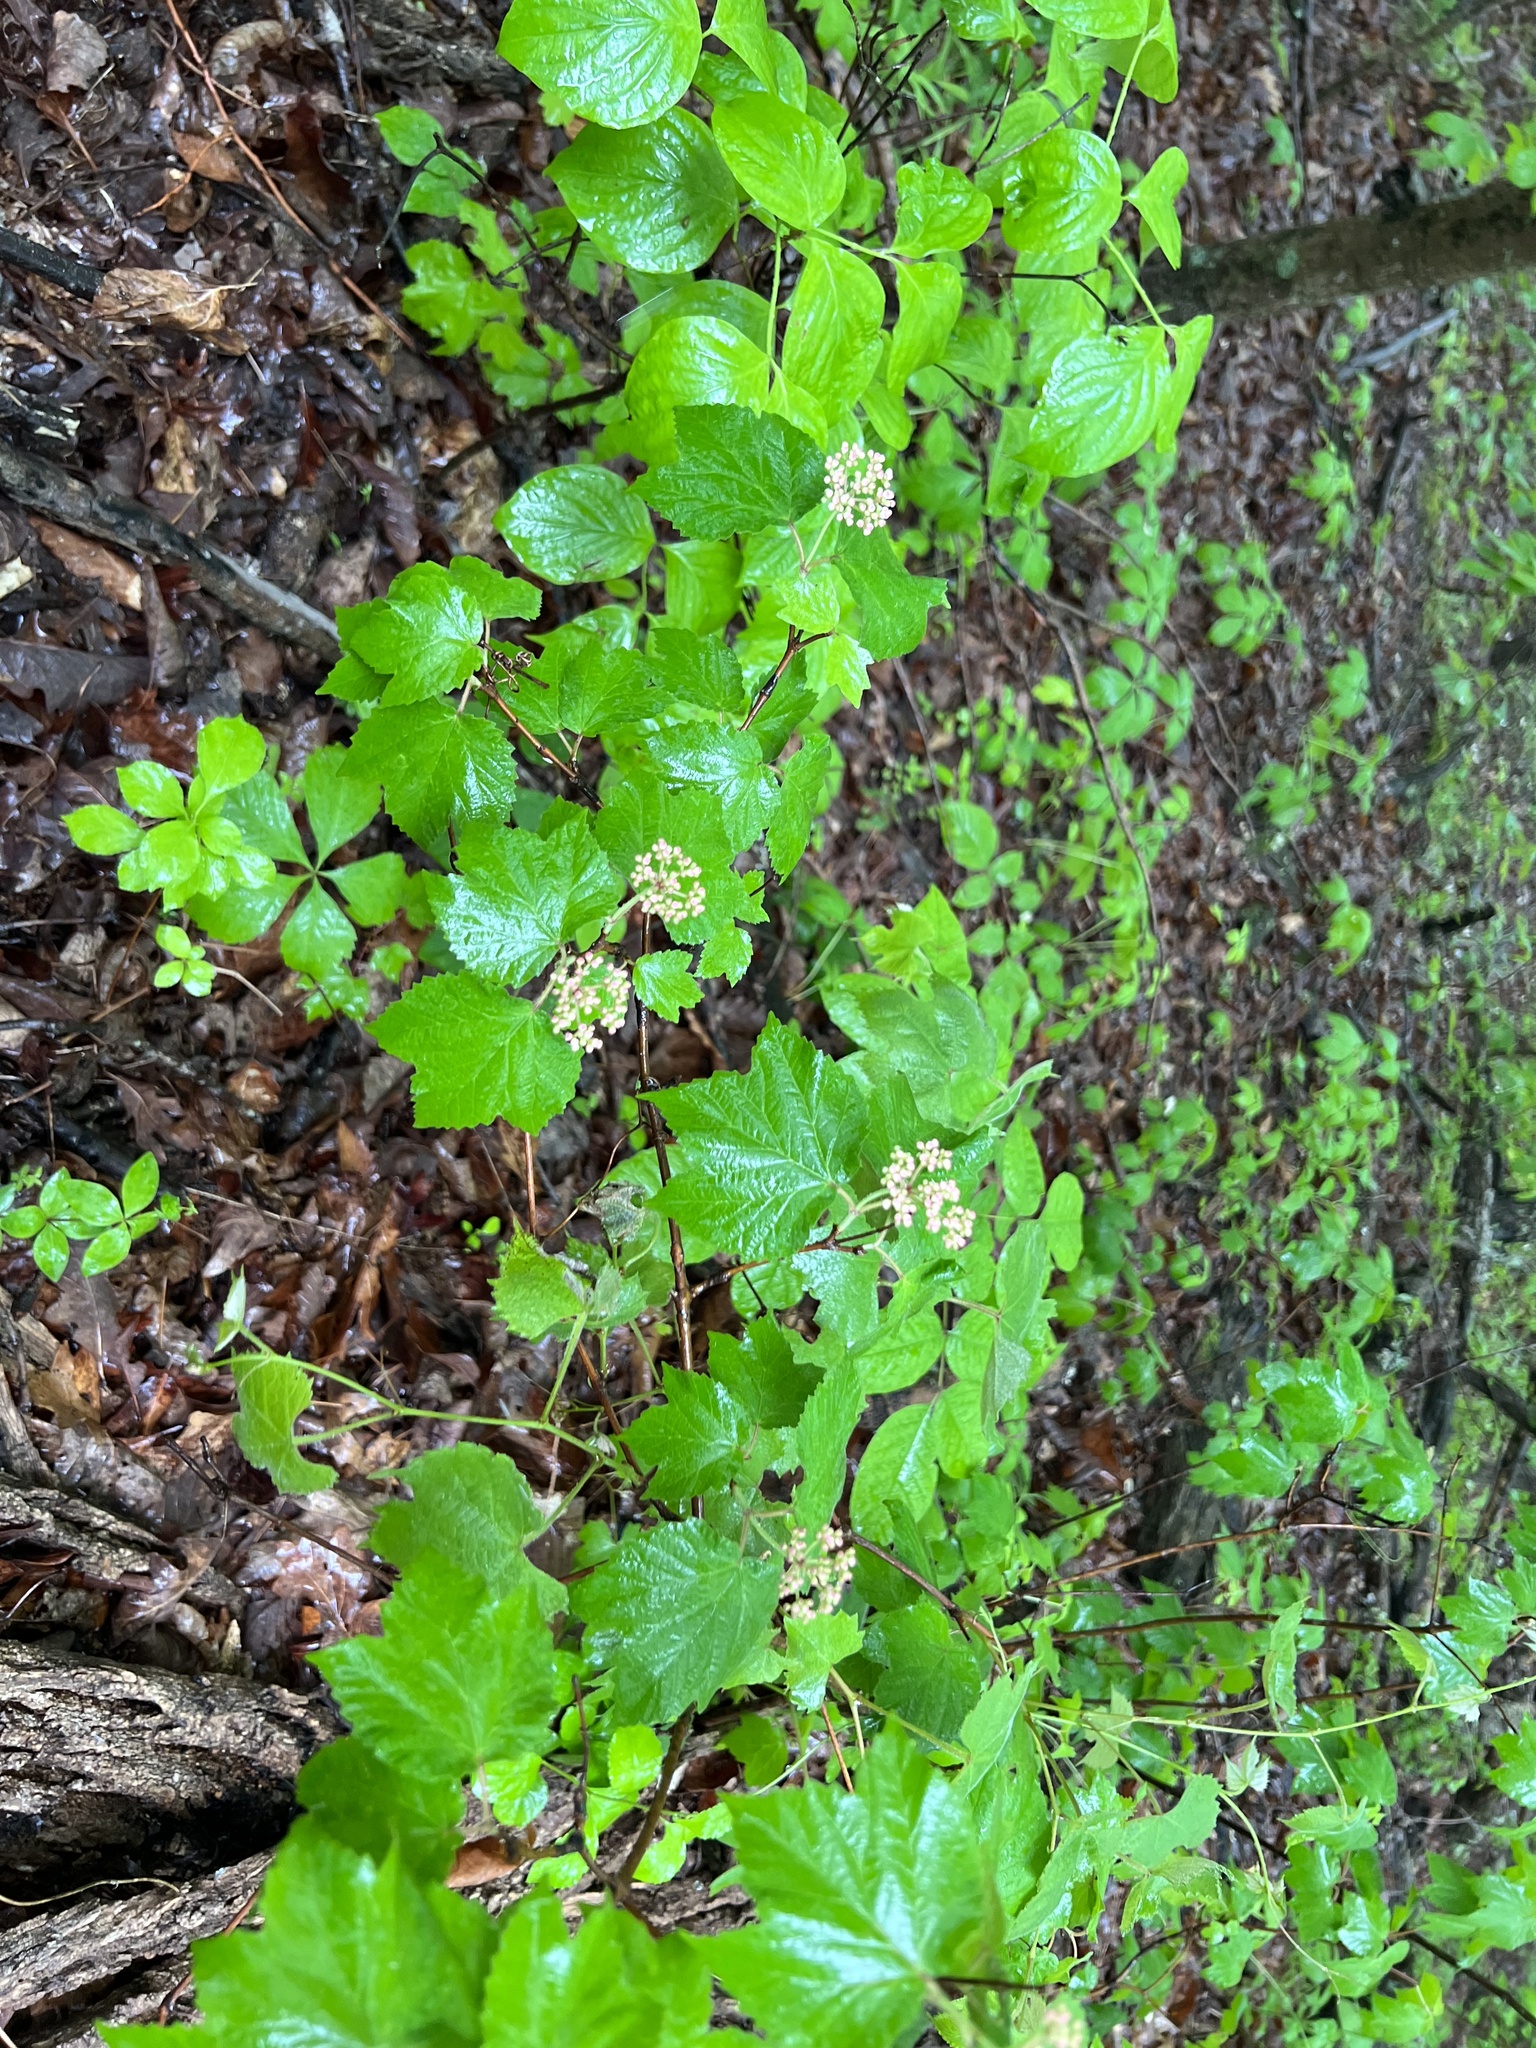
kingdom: Plantae
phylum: Tracheophyta
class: Magnoliopsida
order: Dipsacales
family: Viburnaceae
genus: Viburnum
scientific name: Viburnum acerifolium
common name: Dockmackie
